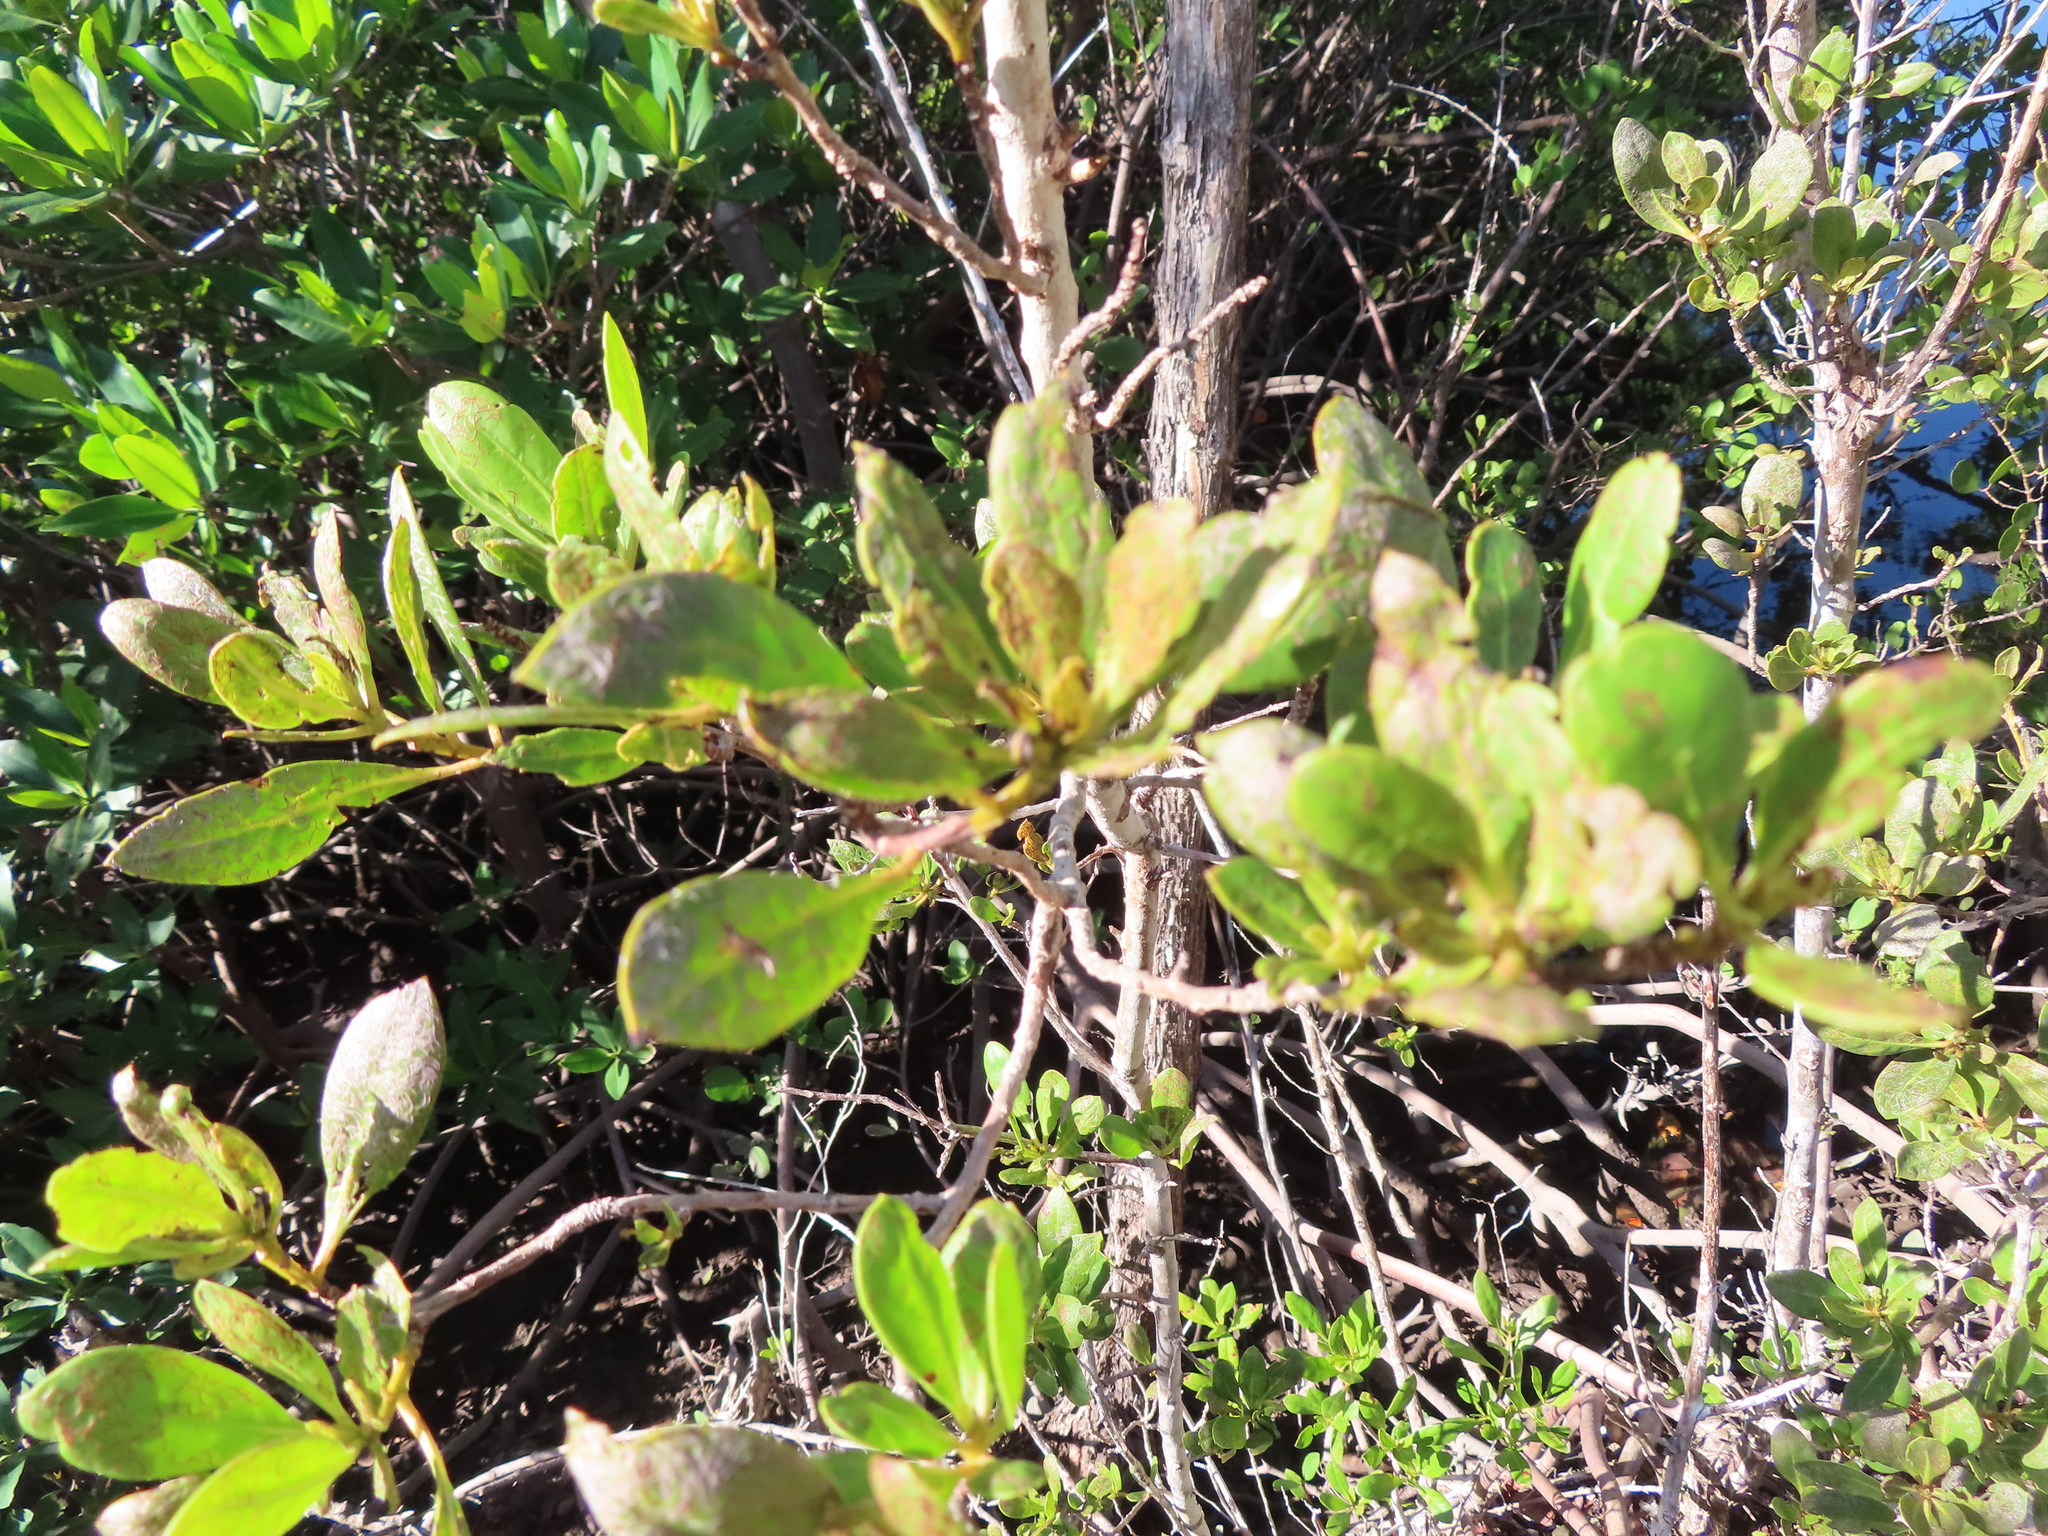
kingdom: Plantae
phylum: Tracheophyta
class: Magnoliopsida
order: Myrtales
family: Combretaceae
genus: Conocarpus
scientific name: Conocarpus erectus
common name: Button mangrove
